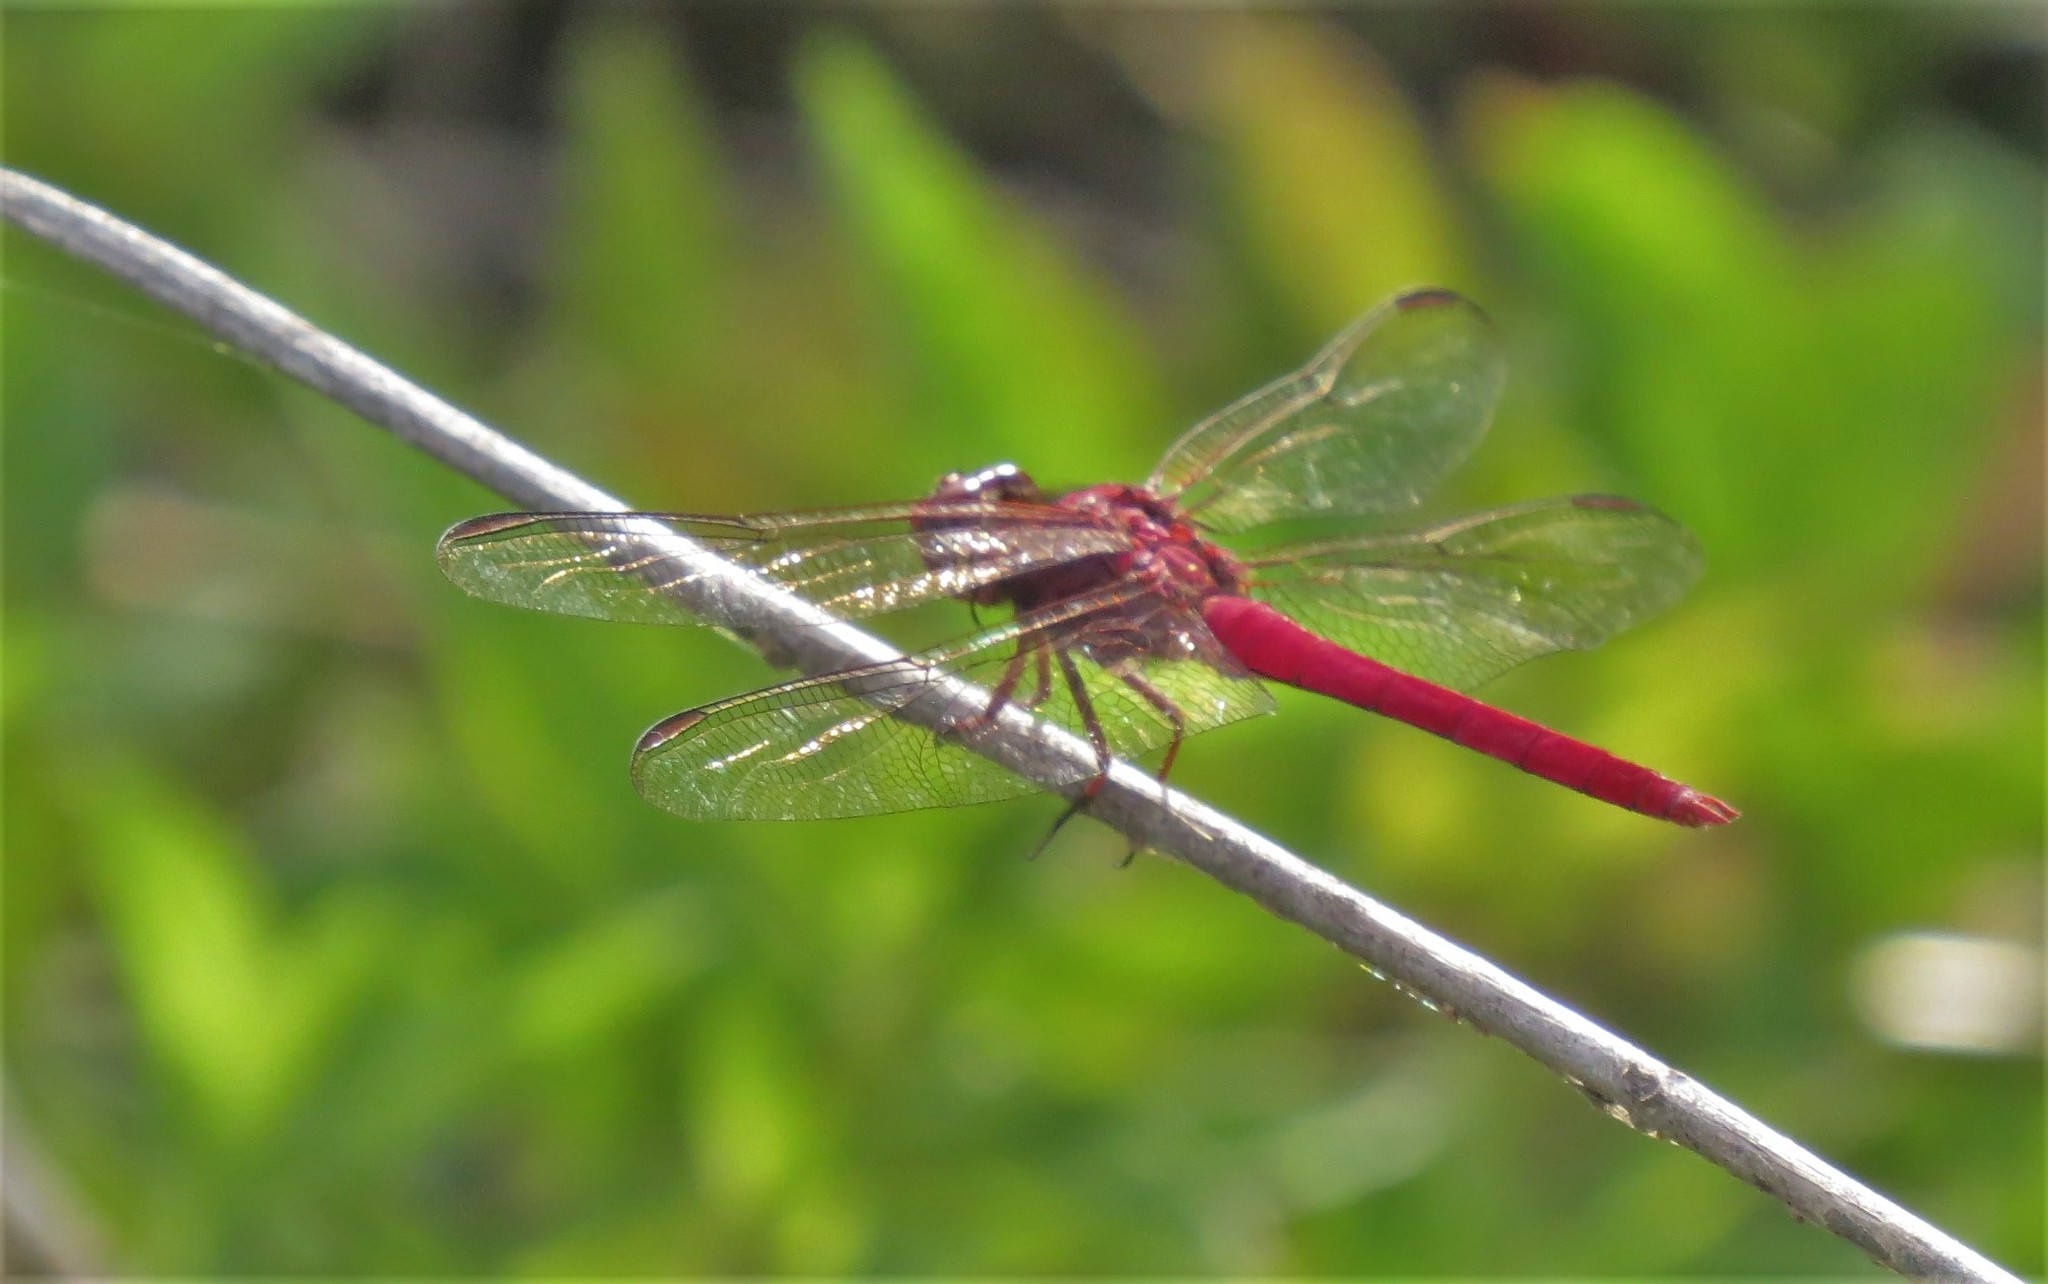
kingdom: Animalia
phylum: Arthropoda
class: Insecta
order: Odonata
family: Libellulidae
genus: Orthemis
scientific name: Orthemis schmidti
